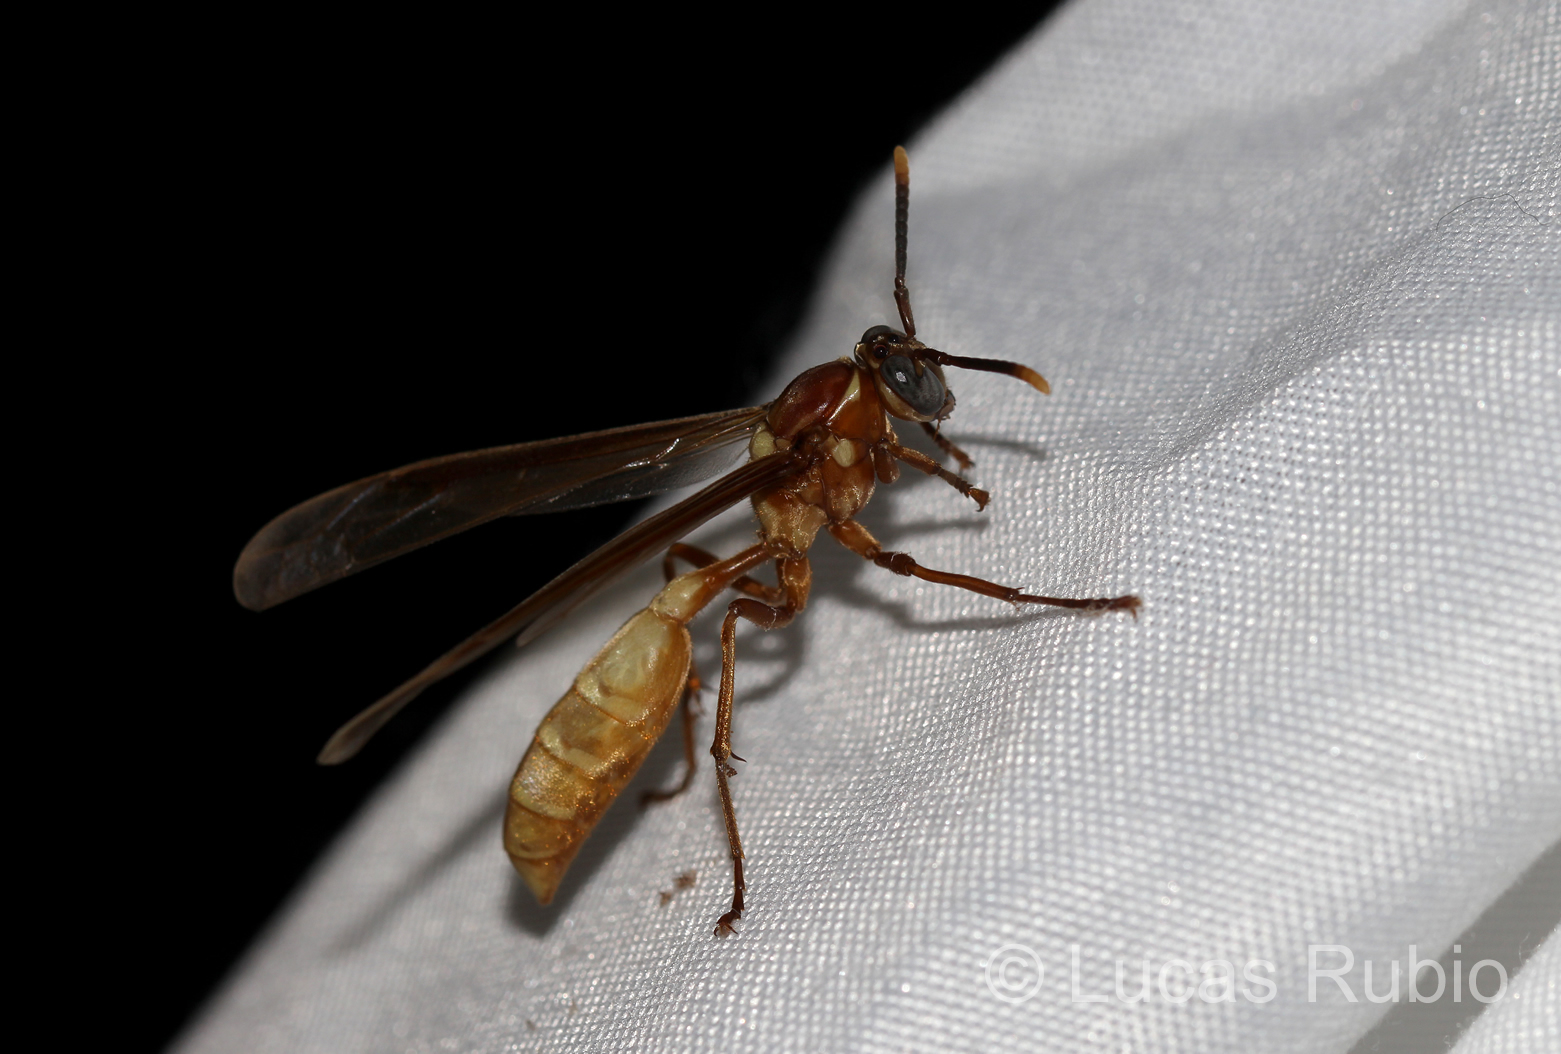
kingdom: Animalia
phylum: Arthropoda
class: Insecta
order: Hymenoptera
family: Vespidae
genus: Apoica
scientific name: Apoica gelida
